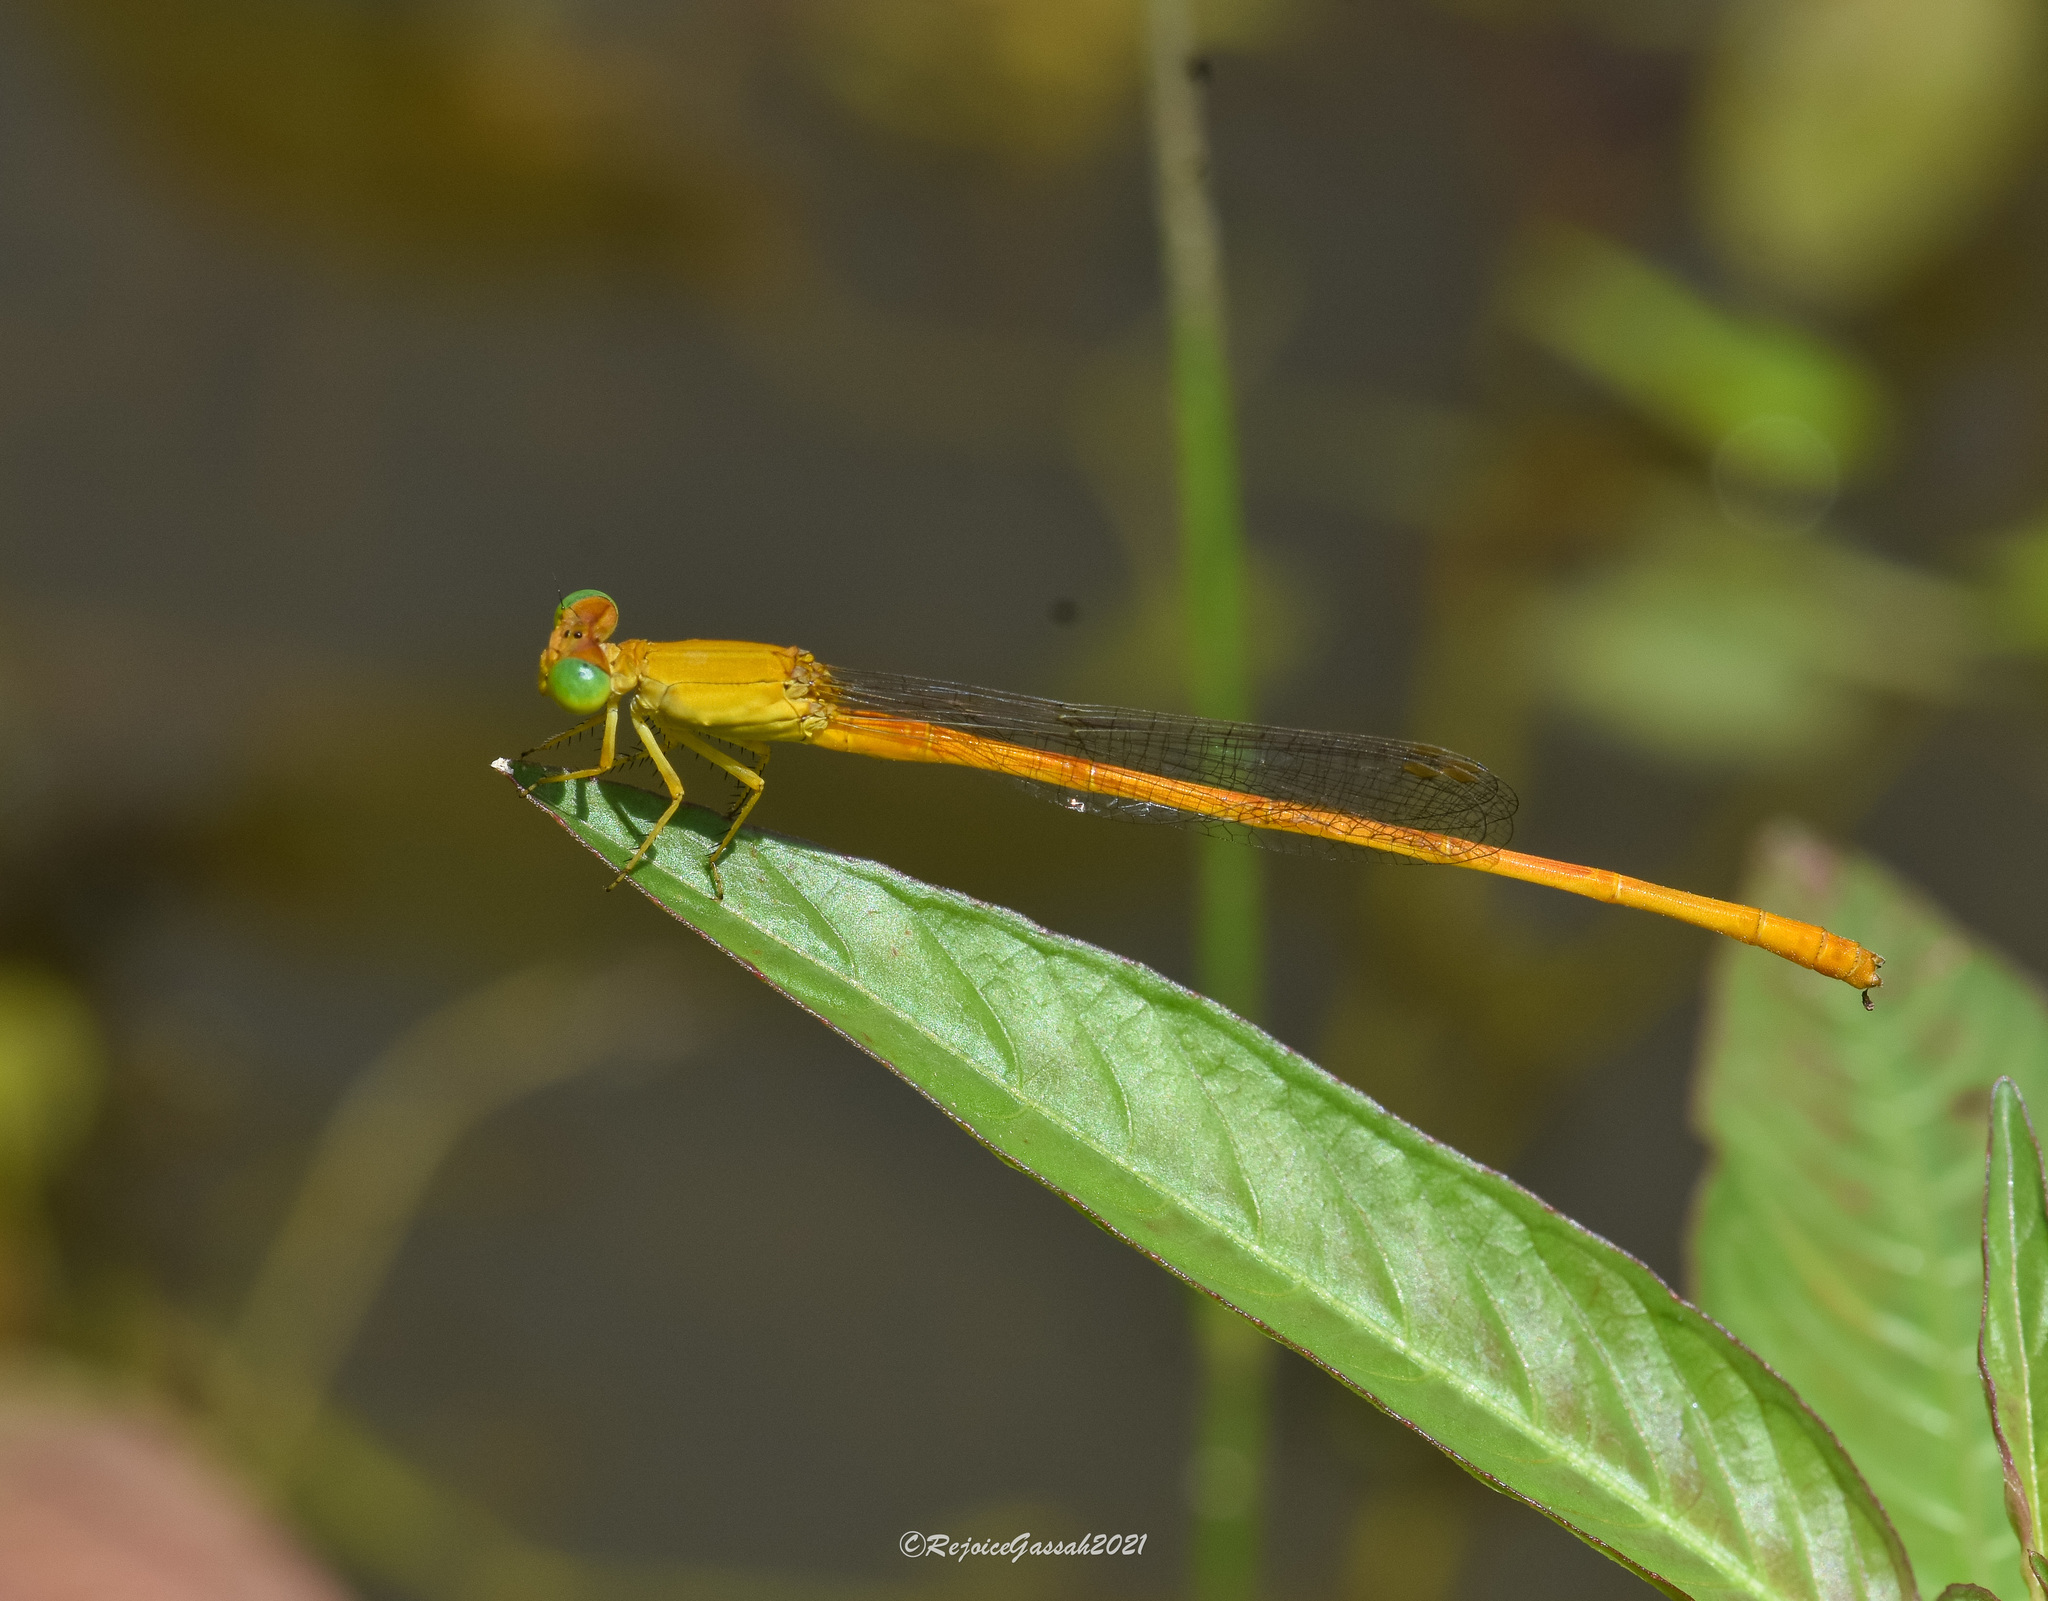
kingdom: Animalia
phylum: Arthropoda
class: Insecta
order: Odonata
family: Coenagrionidae
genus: Ceriagrion
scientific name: Ceriagrion rubiae
